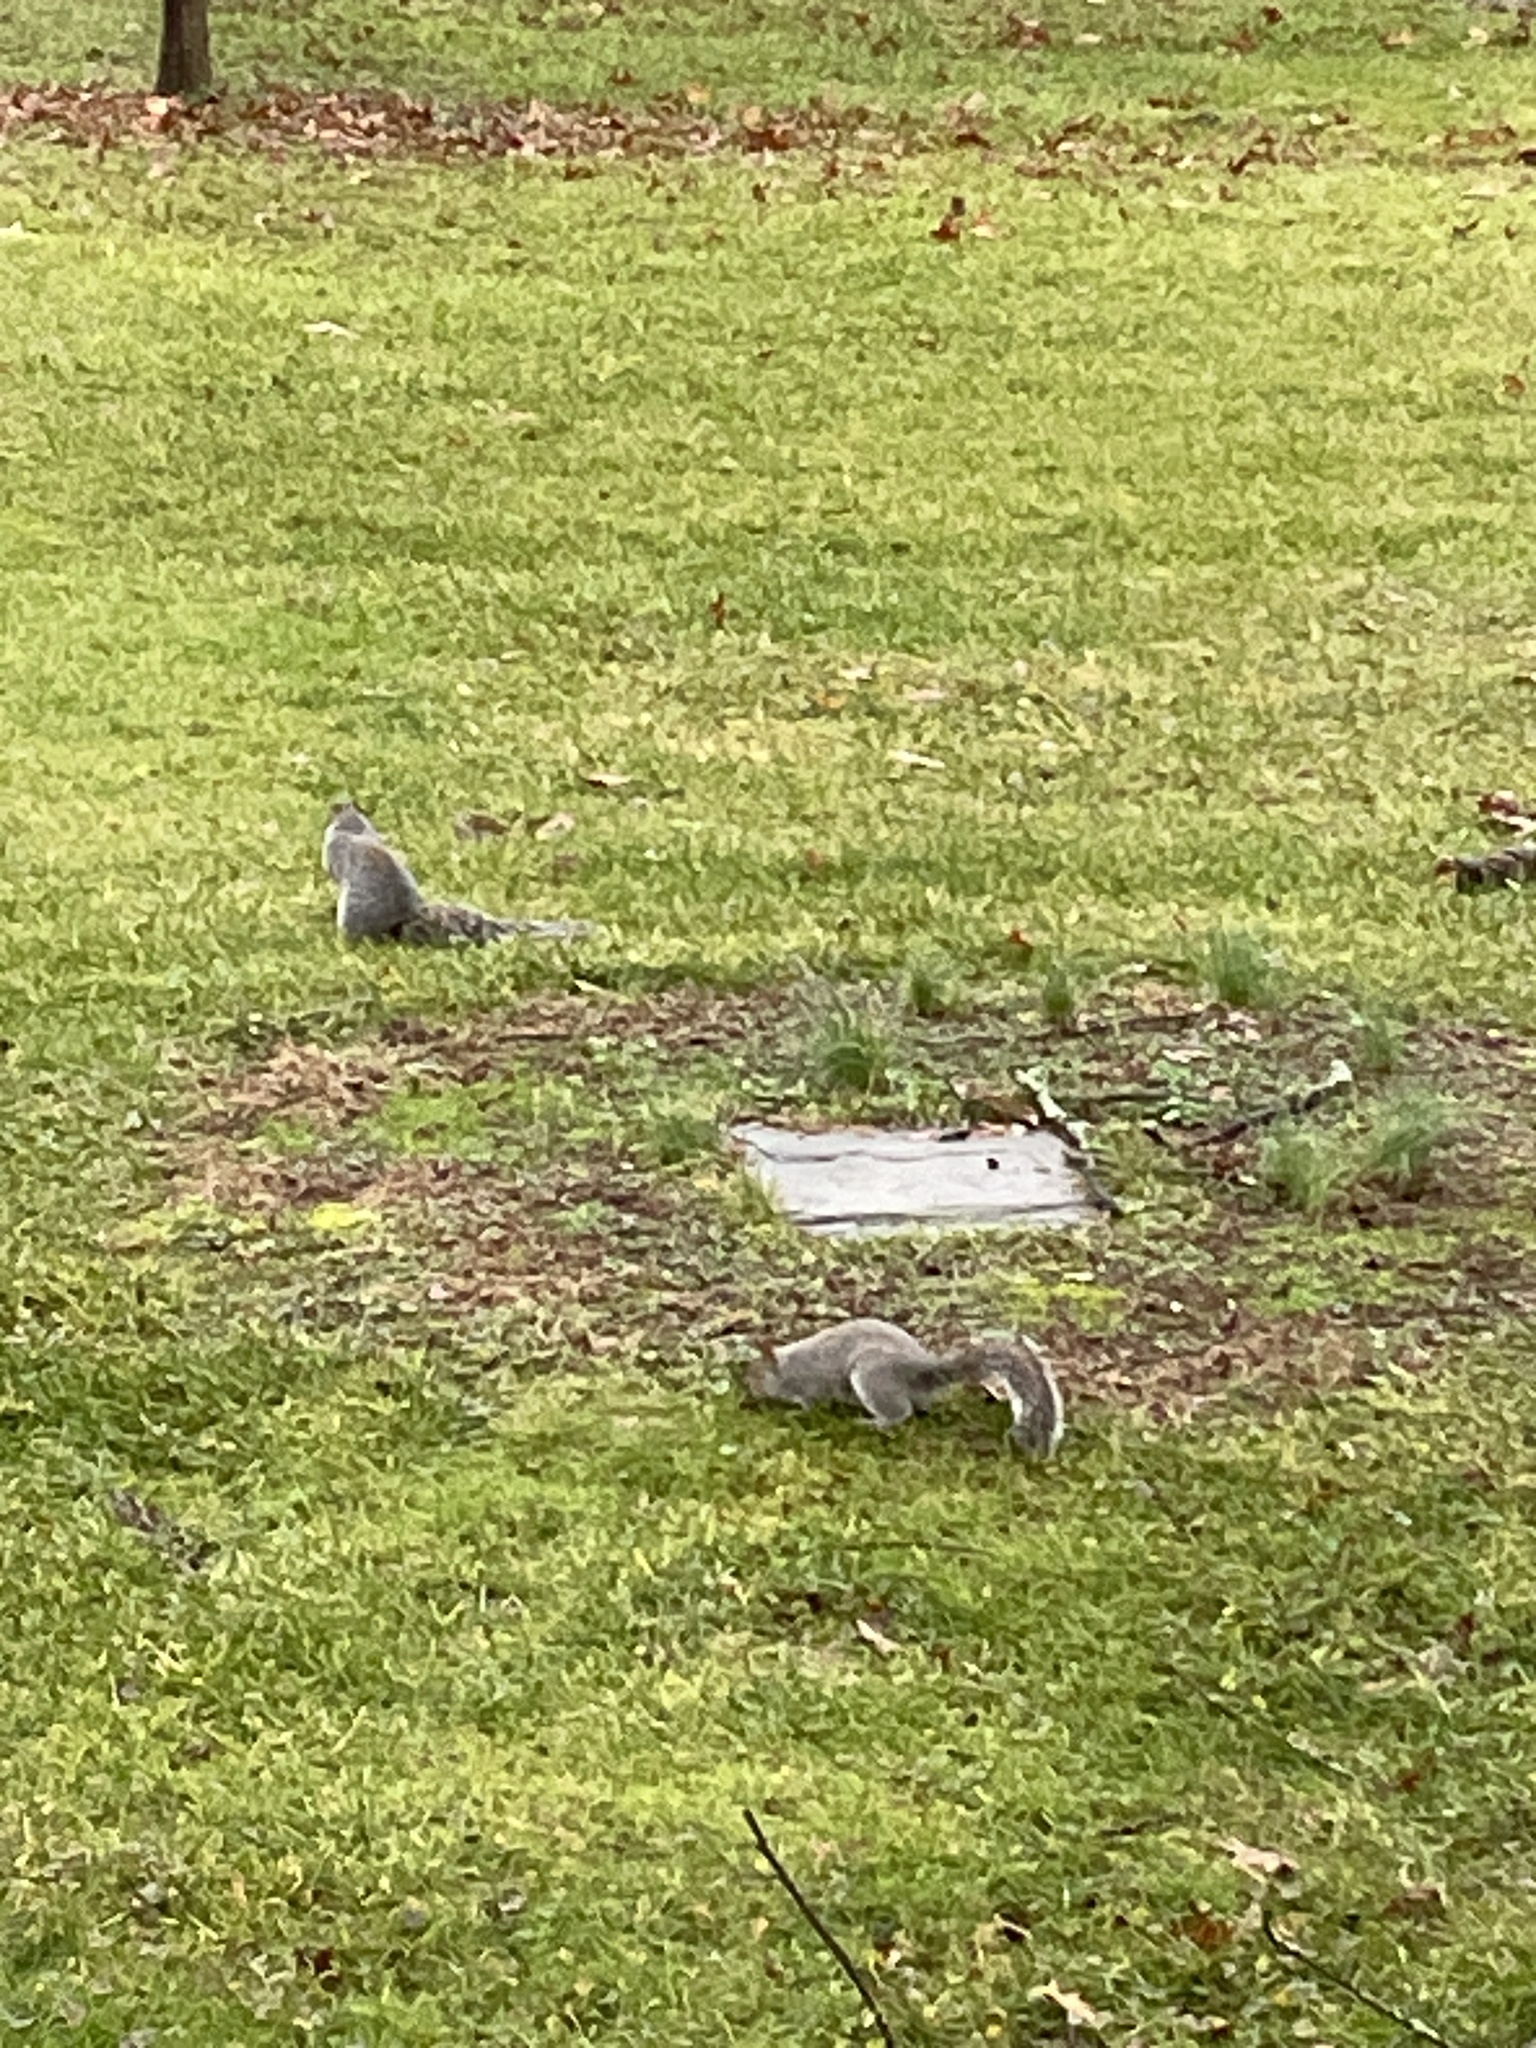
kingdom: Animalia
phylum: Chordata
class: Mammalia
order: Rodentia
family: Sciuridae
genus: Sciurus
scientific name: Sciurus carolinensis
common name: Eastern gray squirrel
